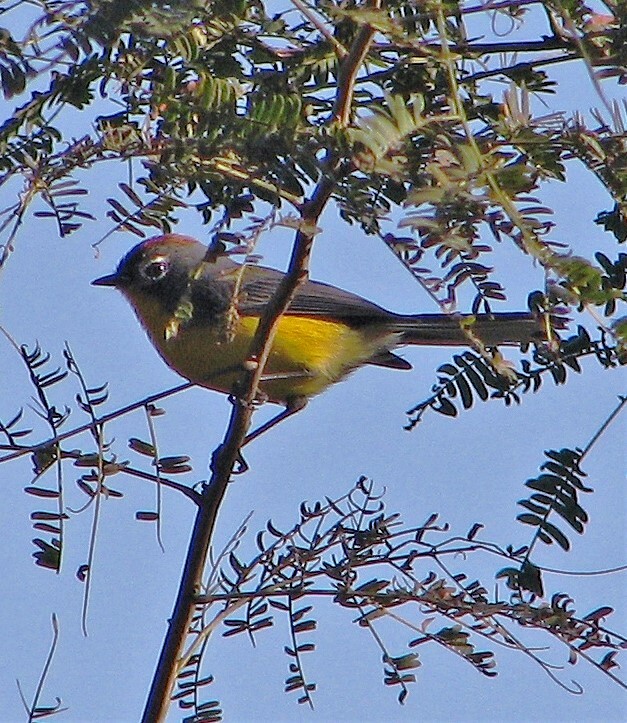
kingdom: Animalia
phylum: Chordata
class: Aves
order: Passeriformes
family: Parulidae
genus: Myioborus
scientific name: Myioborus brunniceps
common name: Brown-capped whitestart
